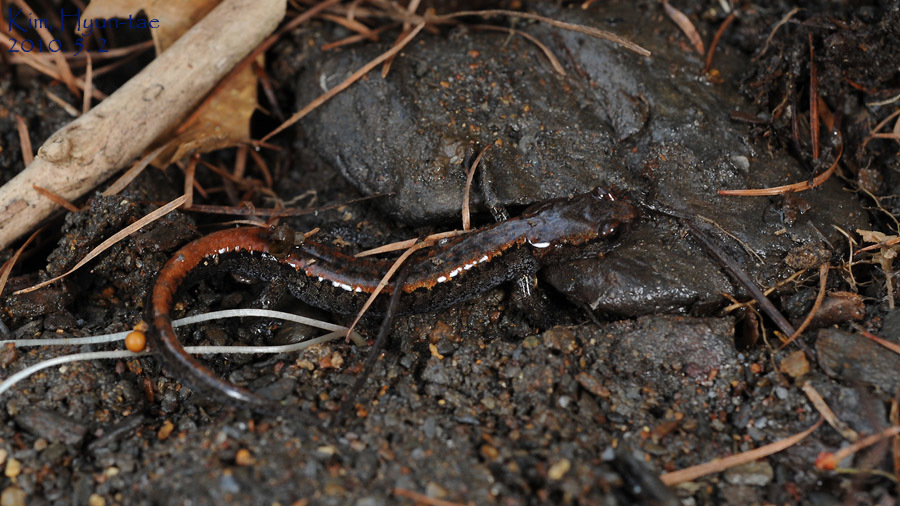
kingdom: Animalia
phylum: Chordata
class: Amphibia
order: Caudata
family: Plethodontidae
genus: Karsenia
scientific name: Karsenia koreana
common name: Korean crevice salamander
